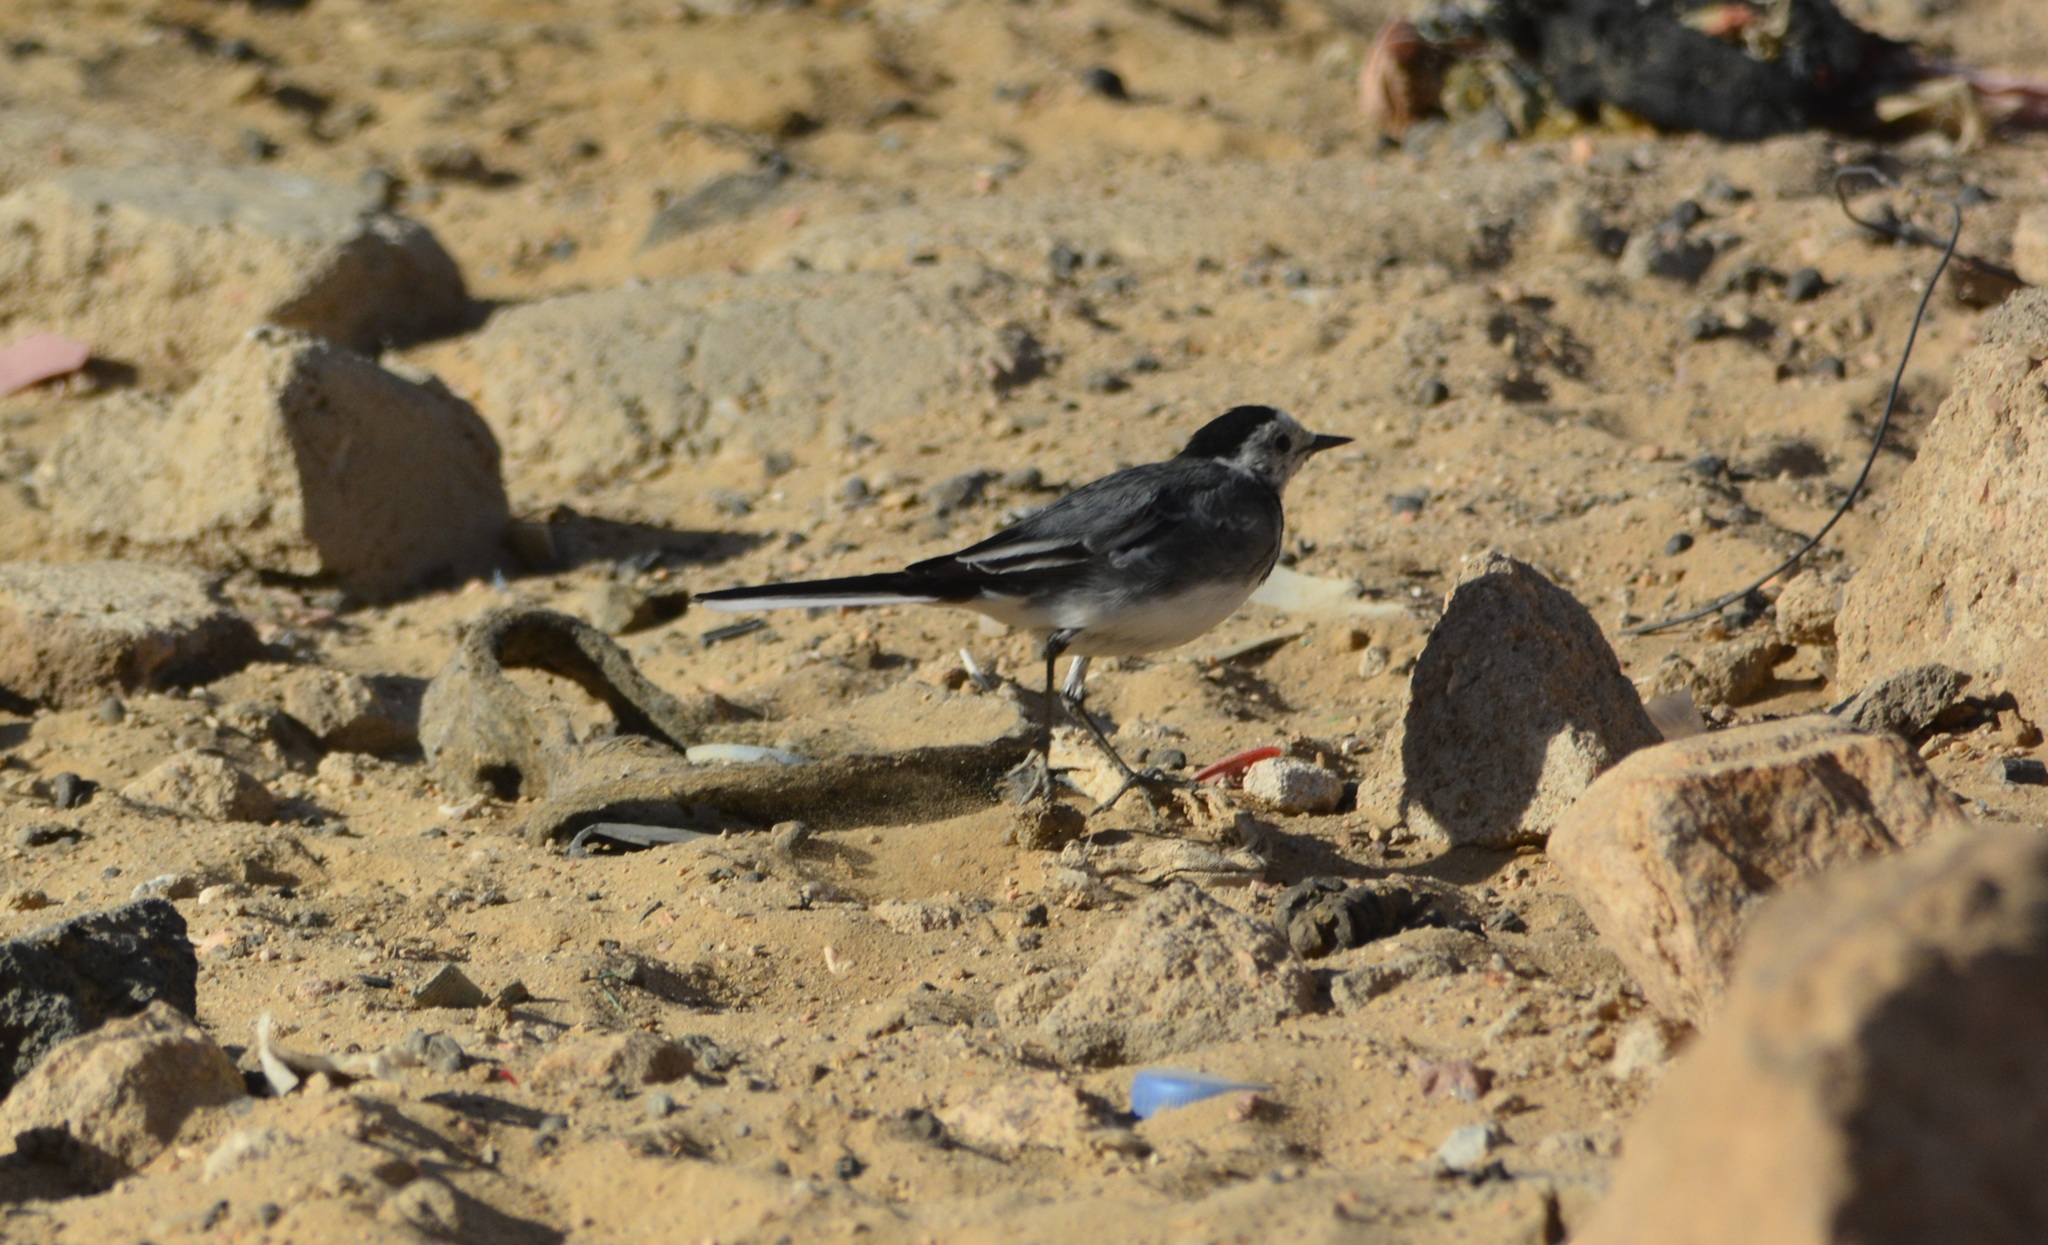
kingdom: Animalia
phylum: Chordata
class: Aves
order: Passeriformes
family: Motacillidae
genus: Motacilla
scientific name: Motacilla alba
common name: White wagtail
